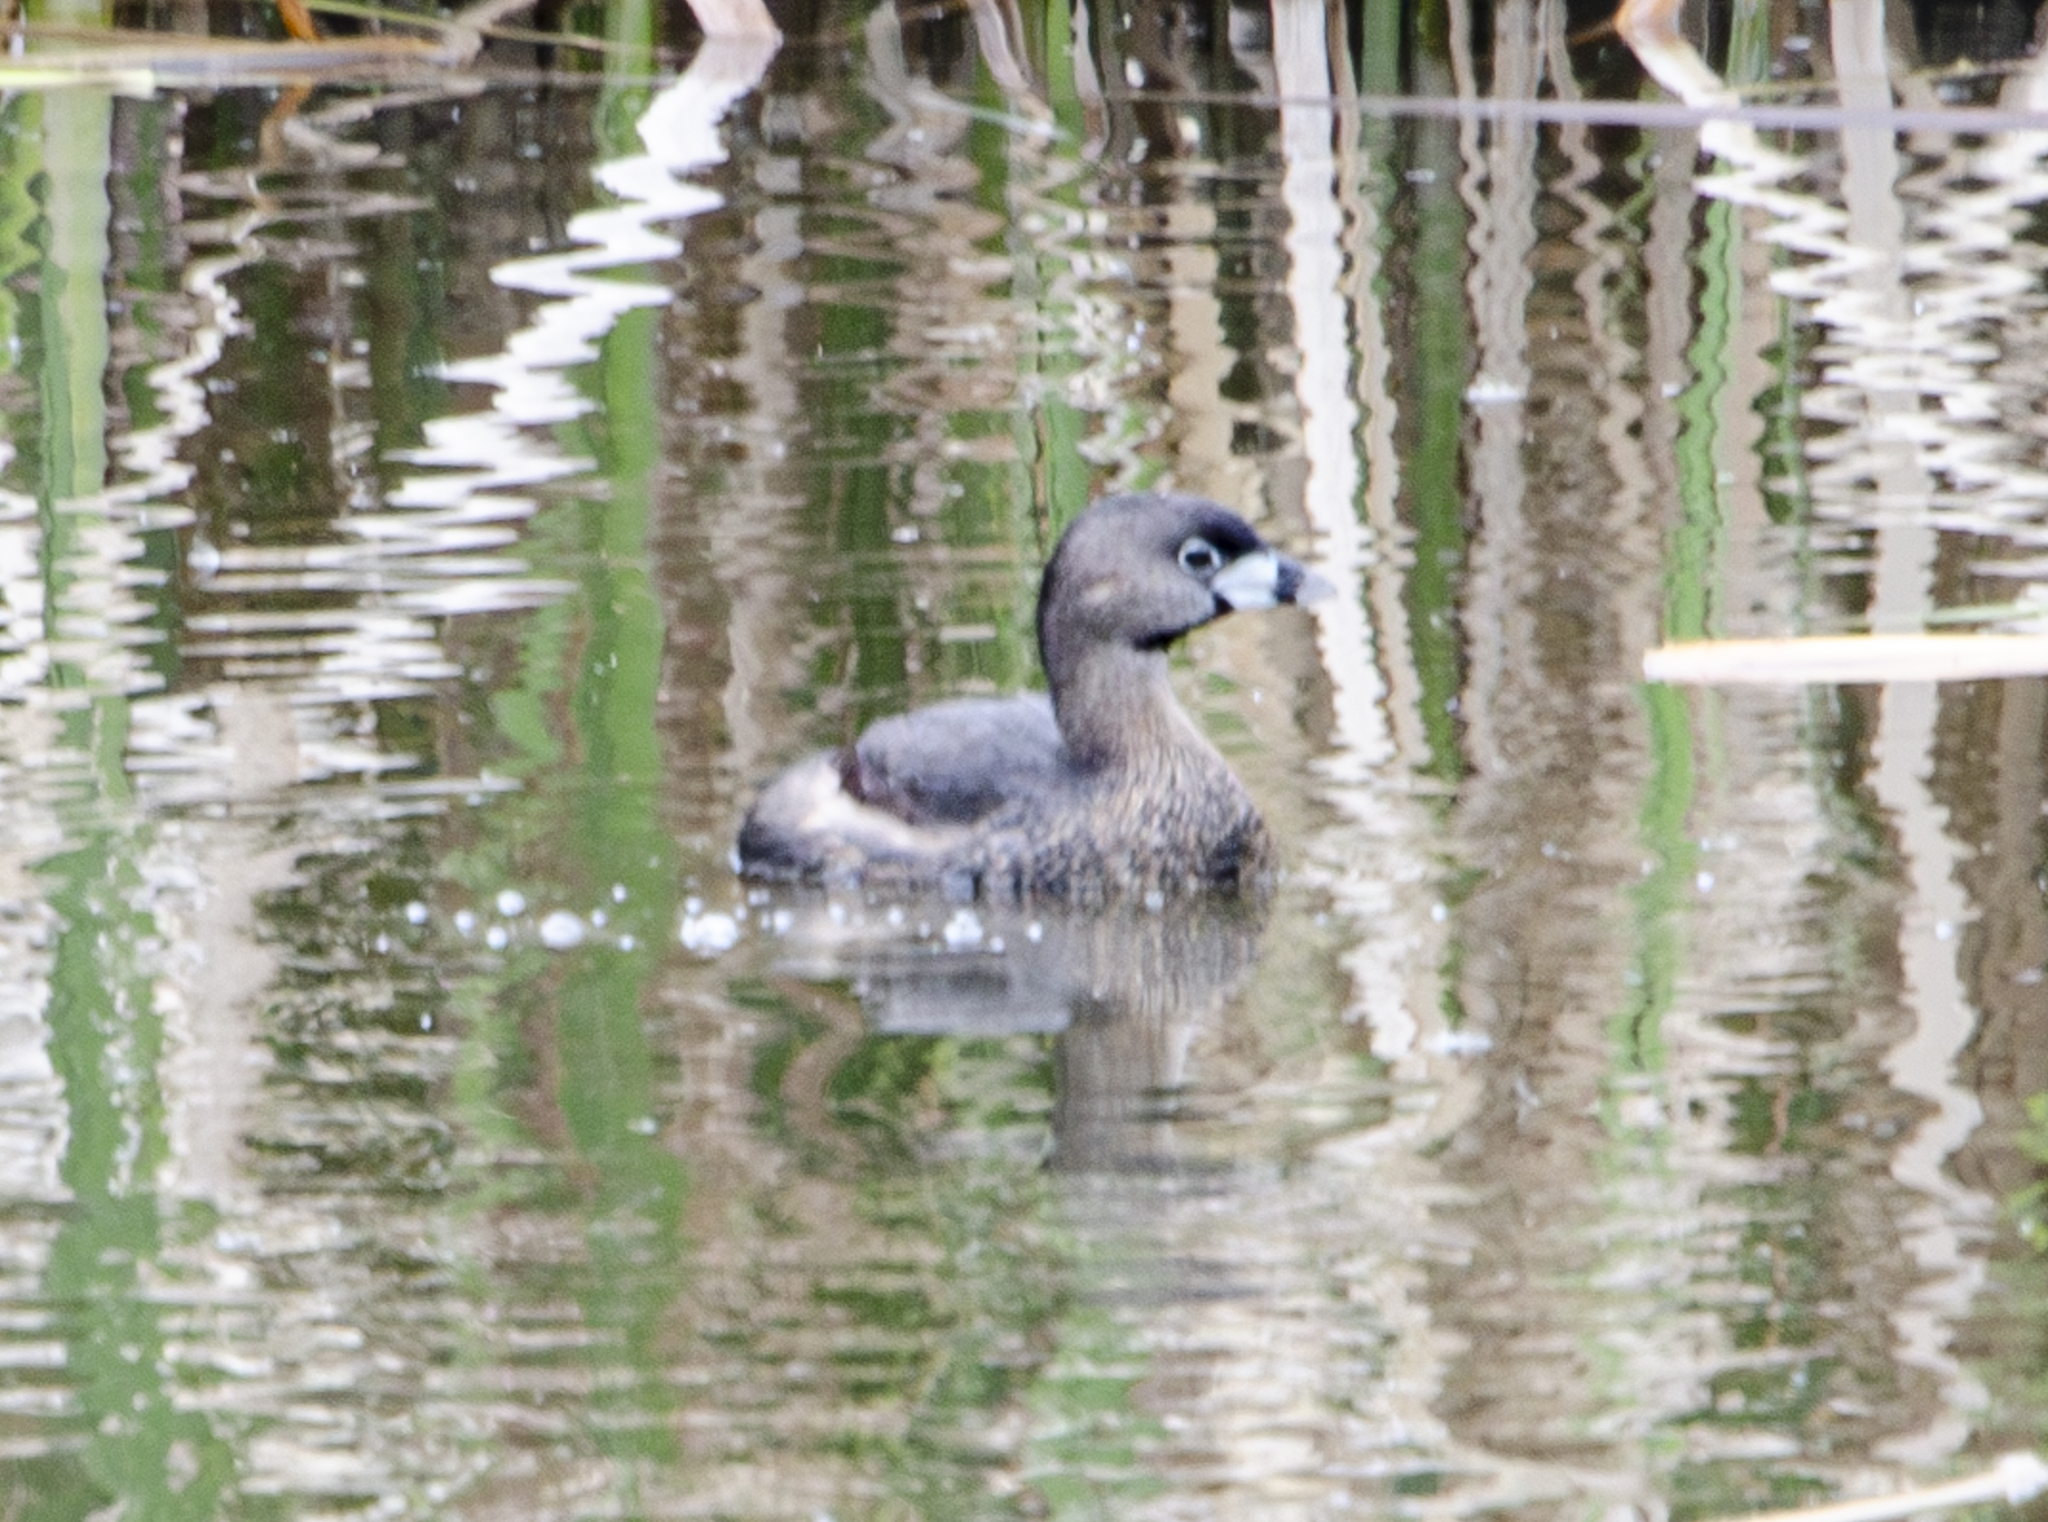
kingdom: Animalia
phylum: Chordata
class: Aves
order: Podicipediformes
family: Podicipedidae
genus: Podilymbus
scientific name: Podilymbus podiceps
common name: Pied-billed grebe
